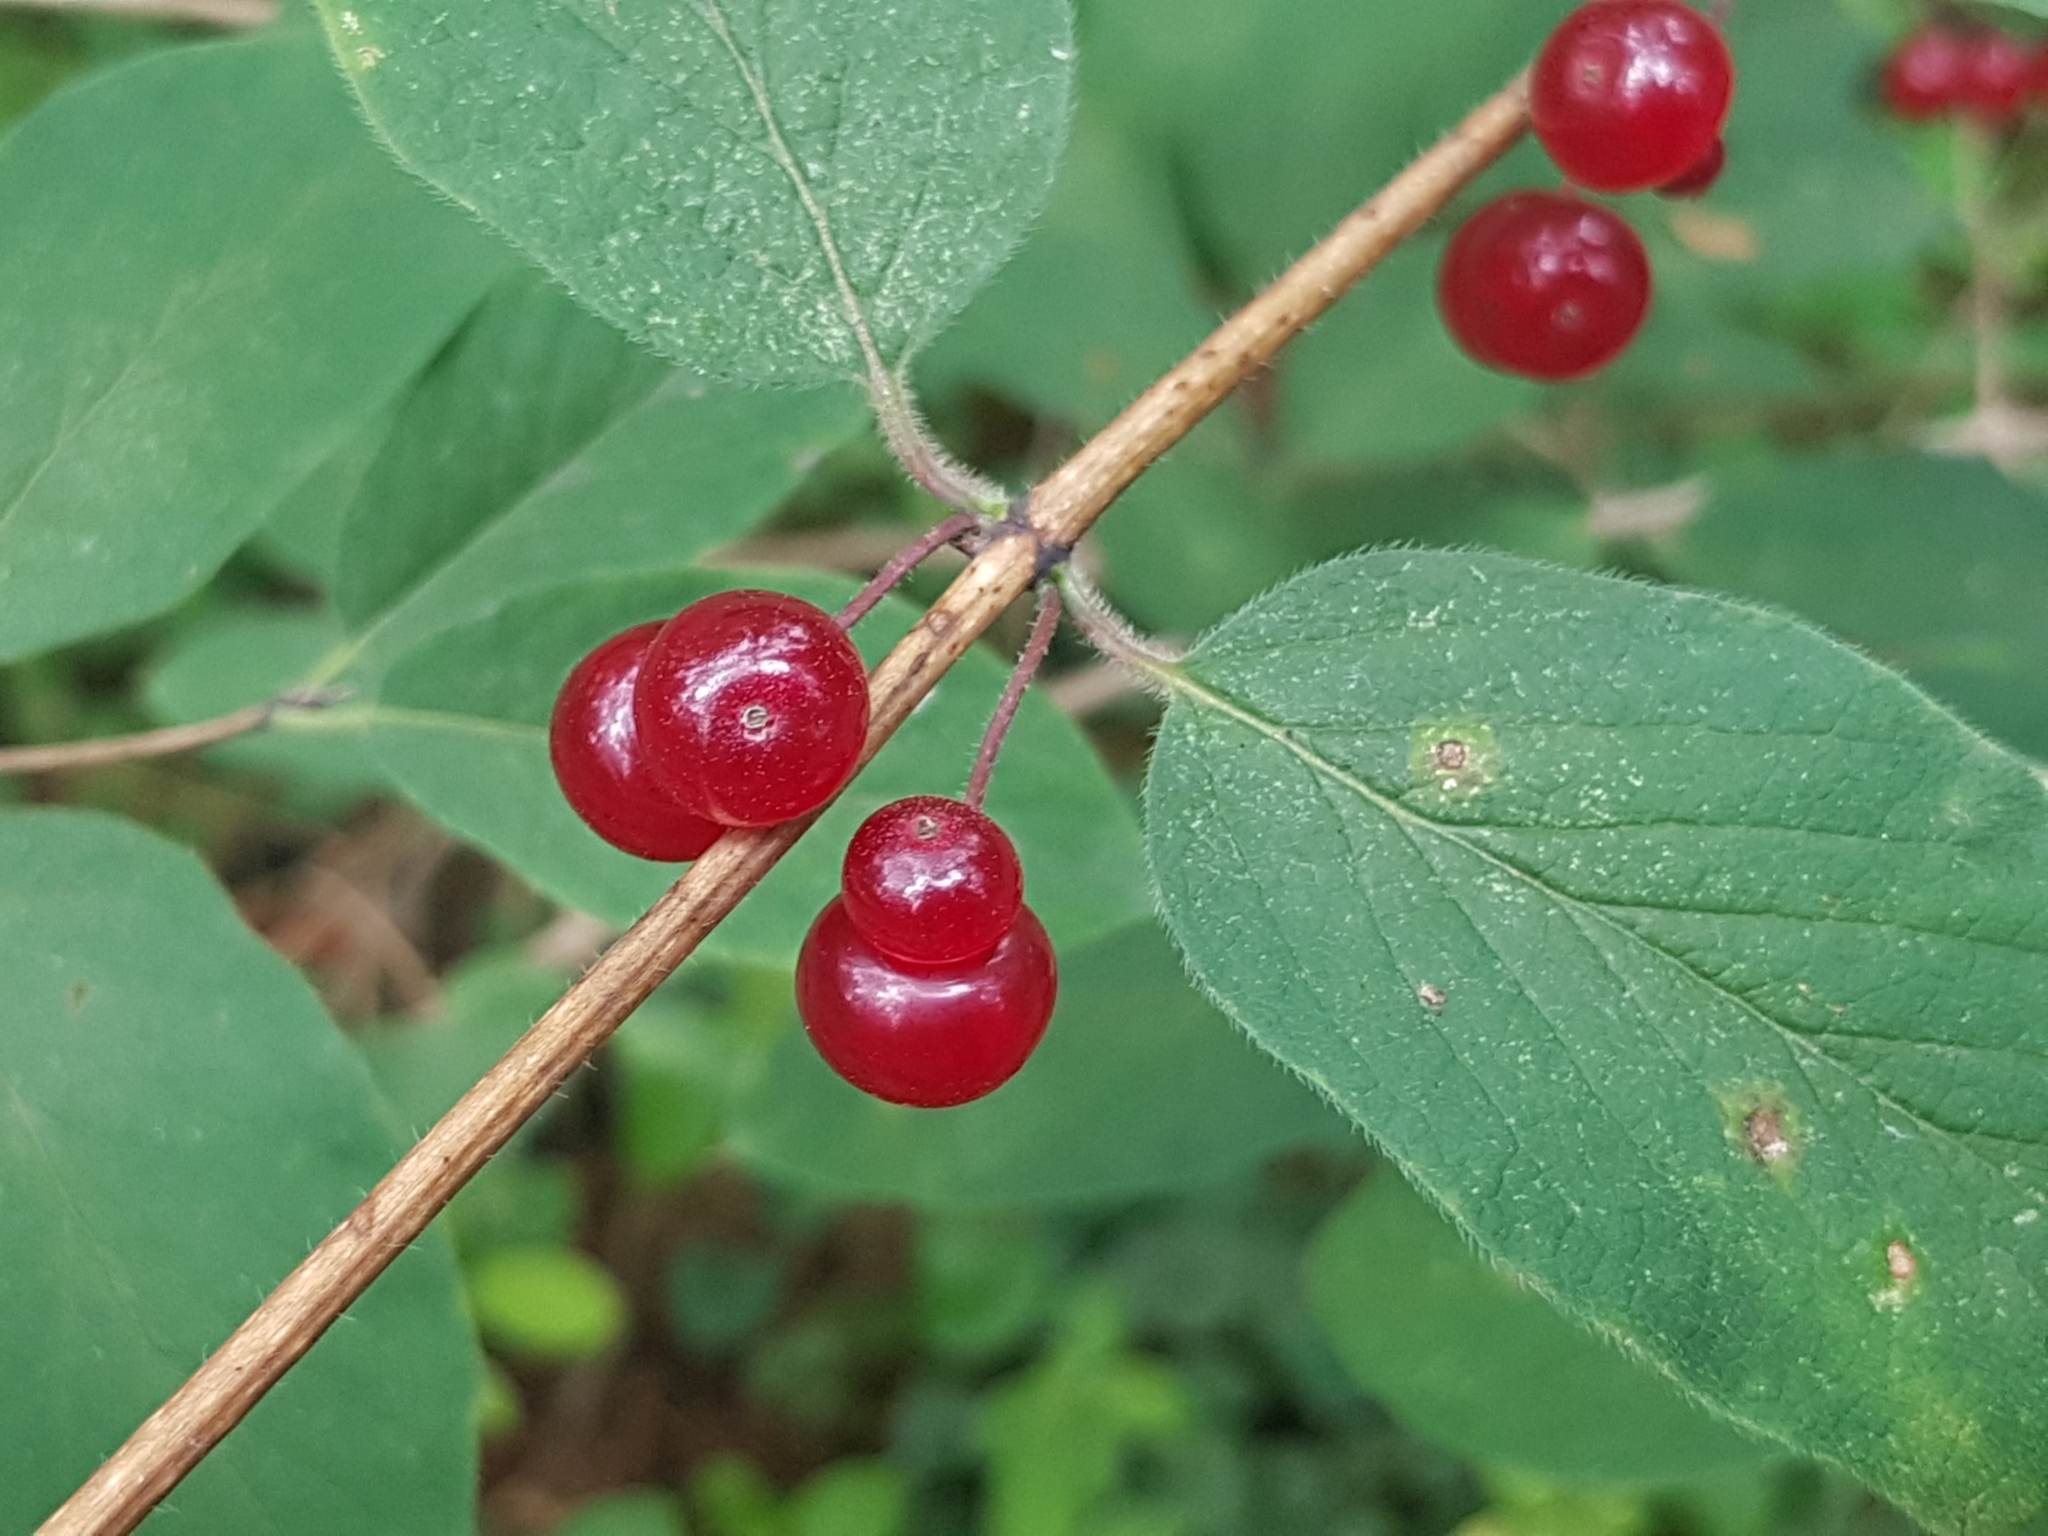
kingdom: Plantae
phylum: Tracheophyta
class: Magnoliopsida
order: Dipsacales
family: Caprifoliaceae
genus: Lonicera
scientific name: Lonicera xylosteum
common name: Fly honeysuckle
